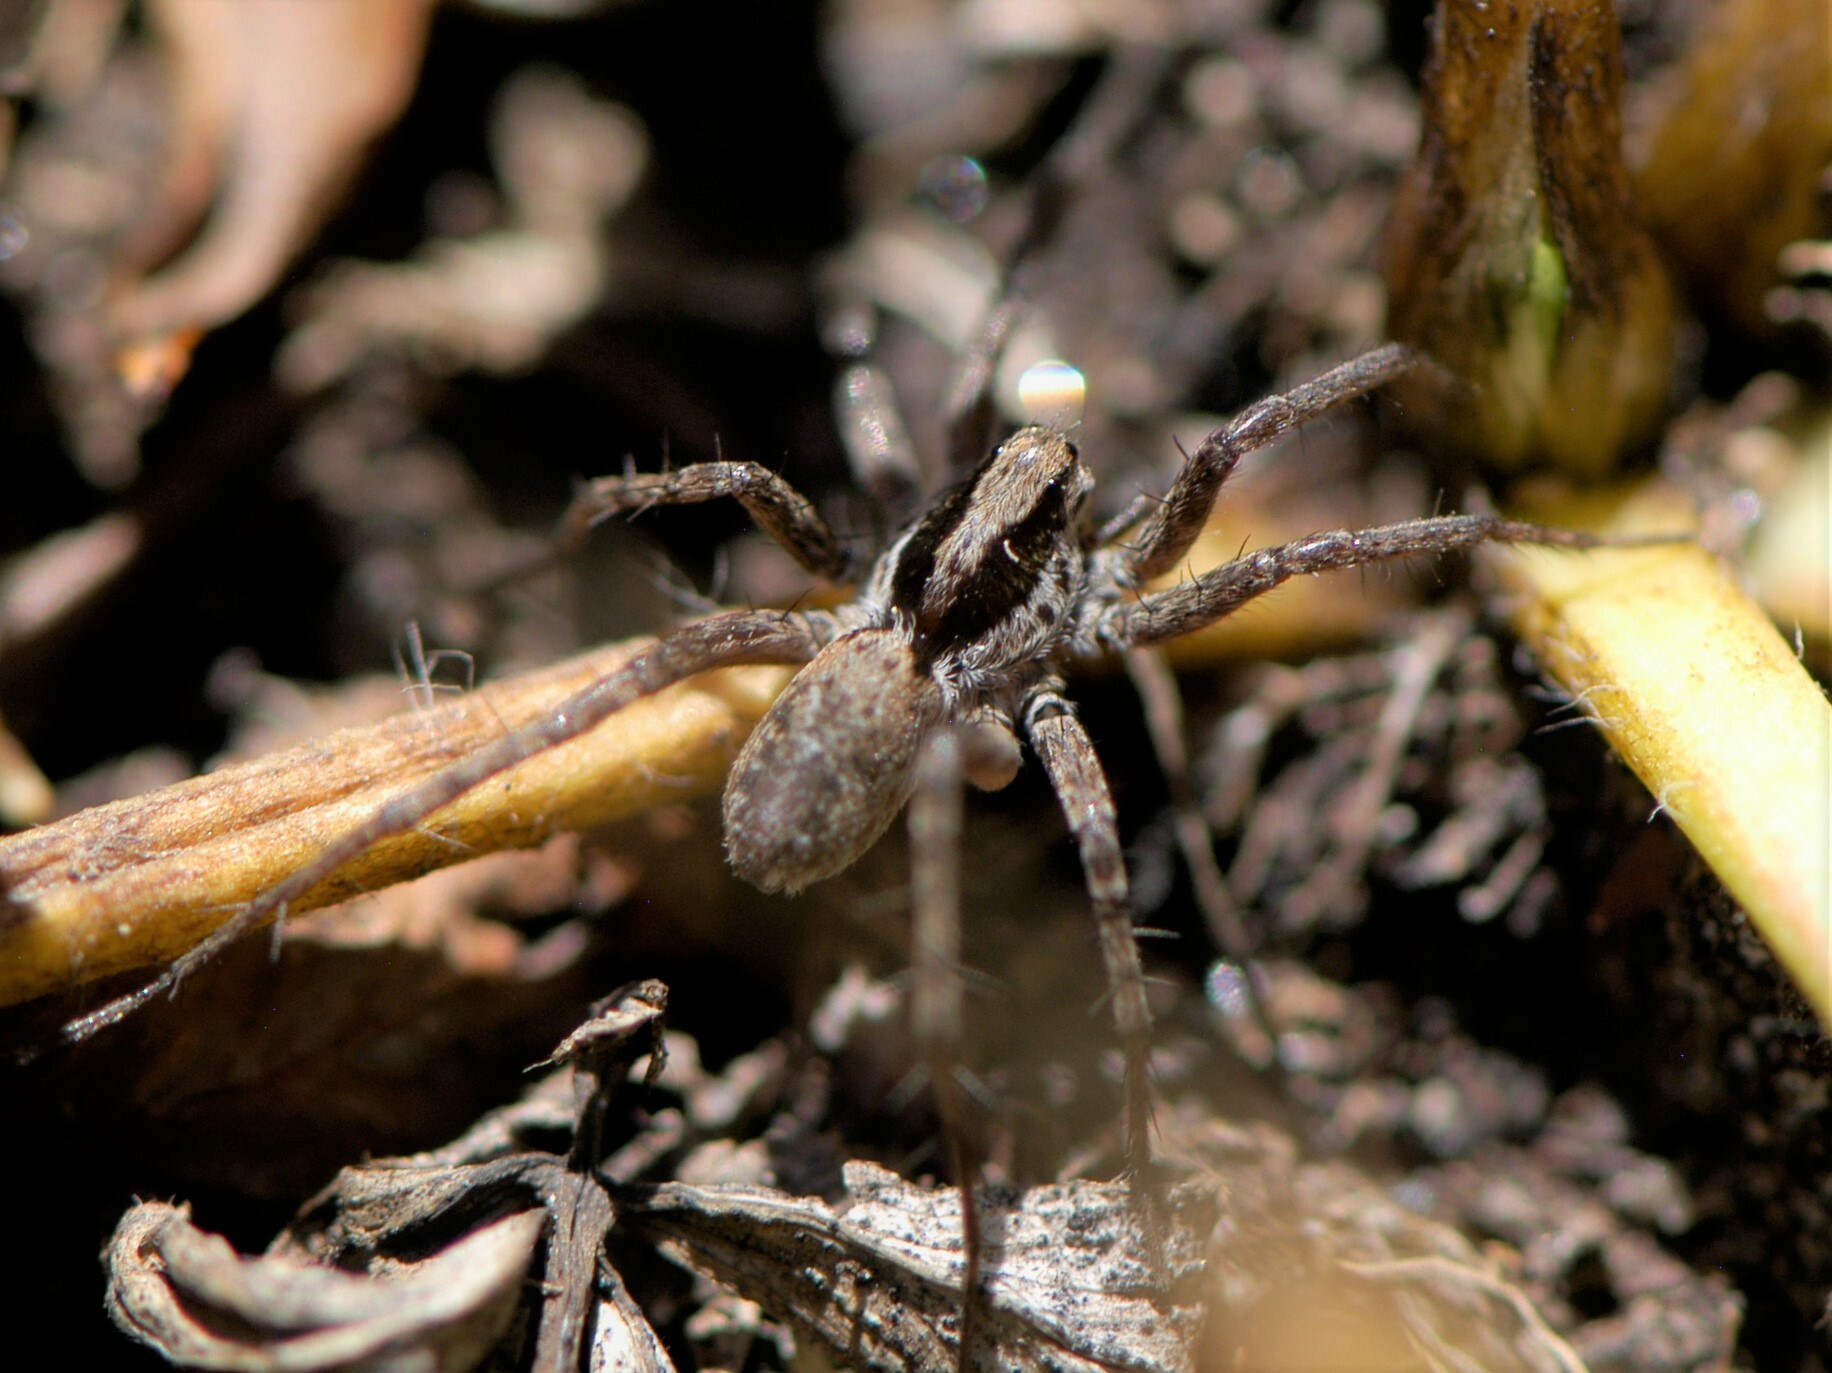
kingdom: Animalia
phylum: Arthropoda
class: Arachnida
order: Araneae
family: Lycosidae
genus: Pardosa
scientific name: Pardosa
